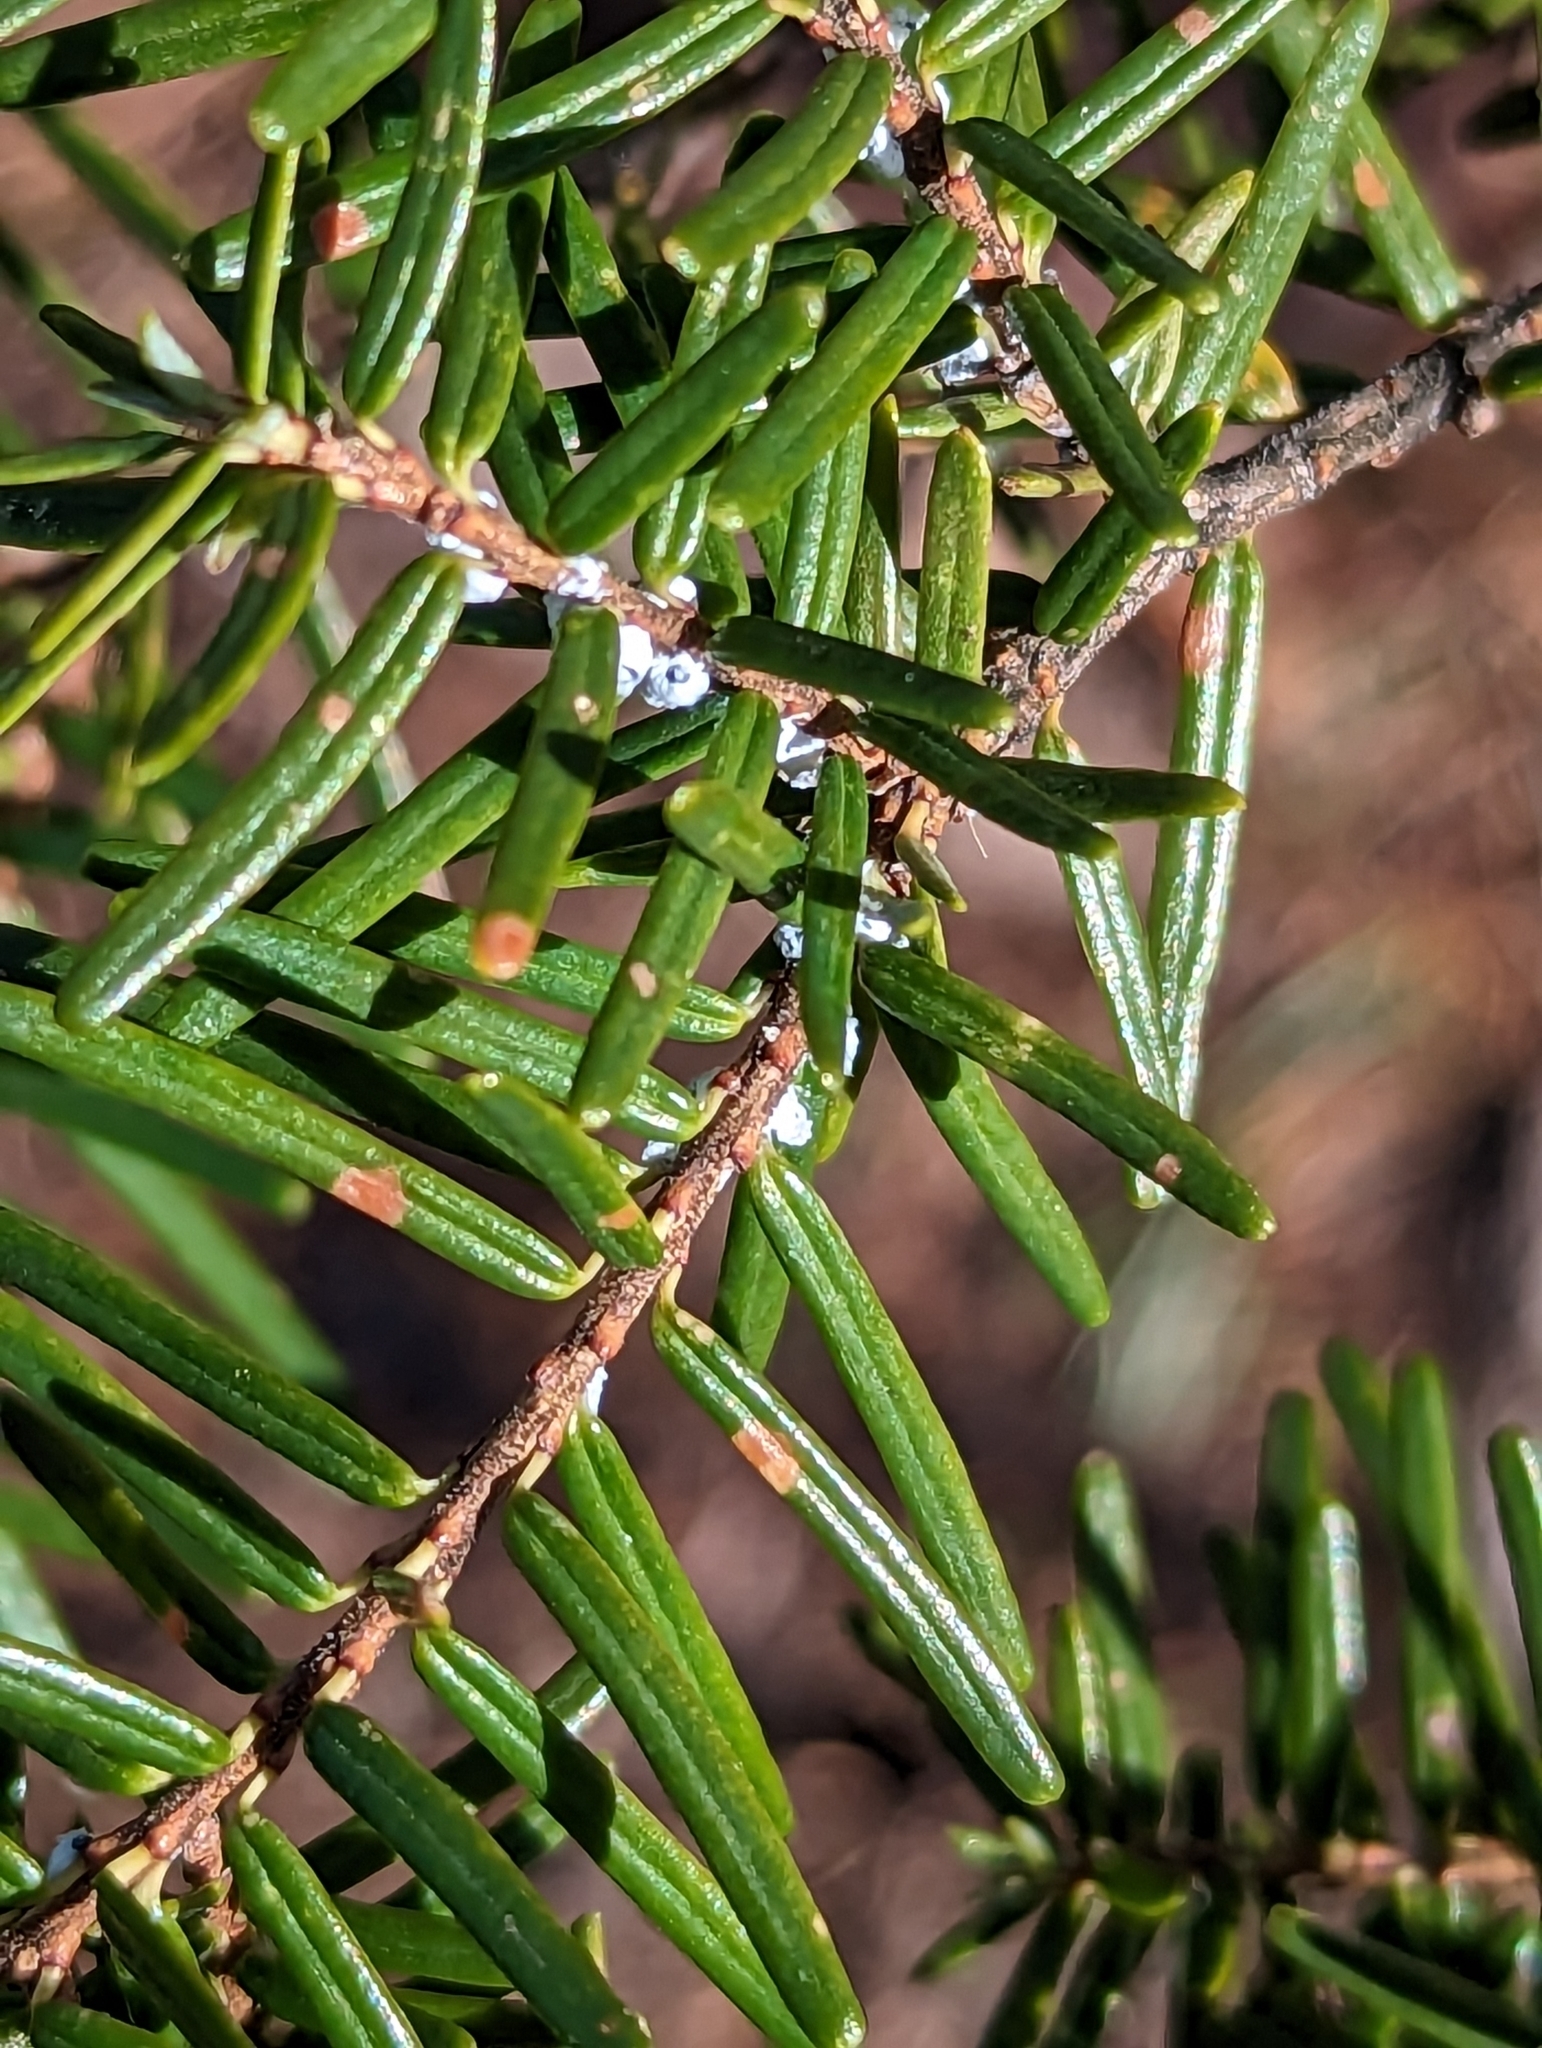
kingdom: Animalia
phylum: Arthropoda
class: Insecta
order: Hemiptera
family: Adelgidae
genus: Adelges
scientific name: Adelges tsugae
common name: Hemlock woolly adelgid
